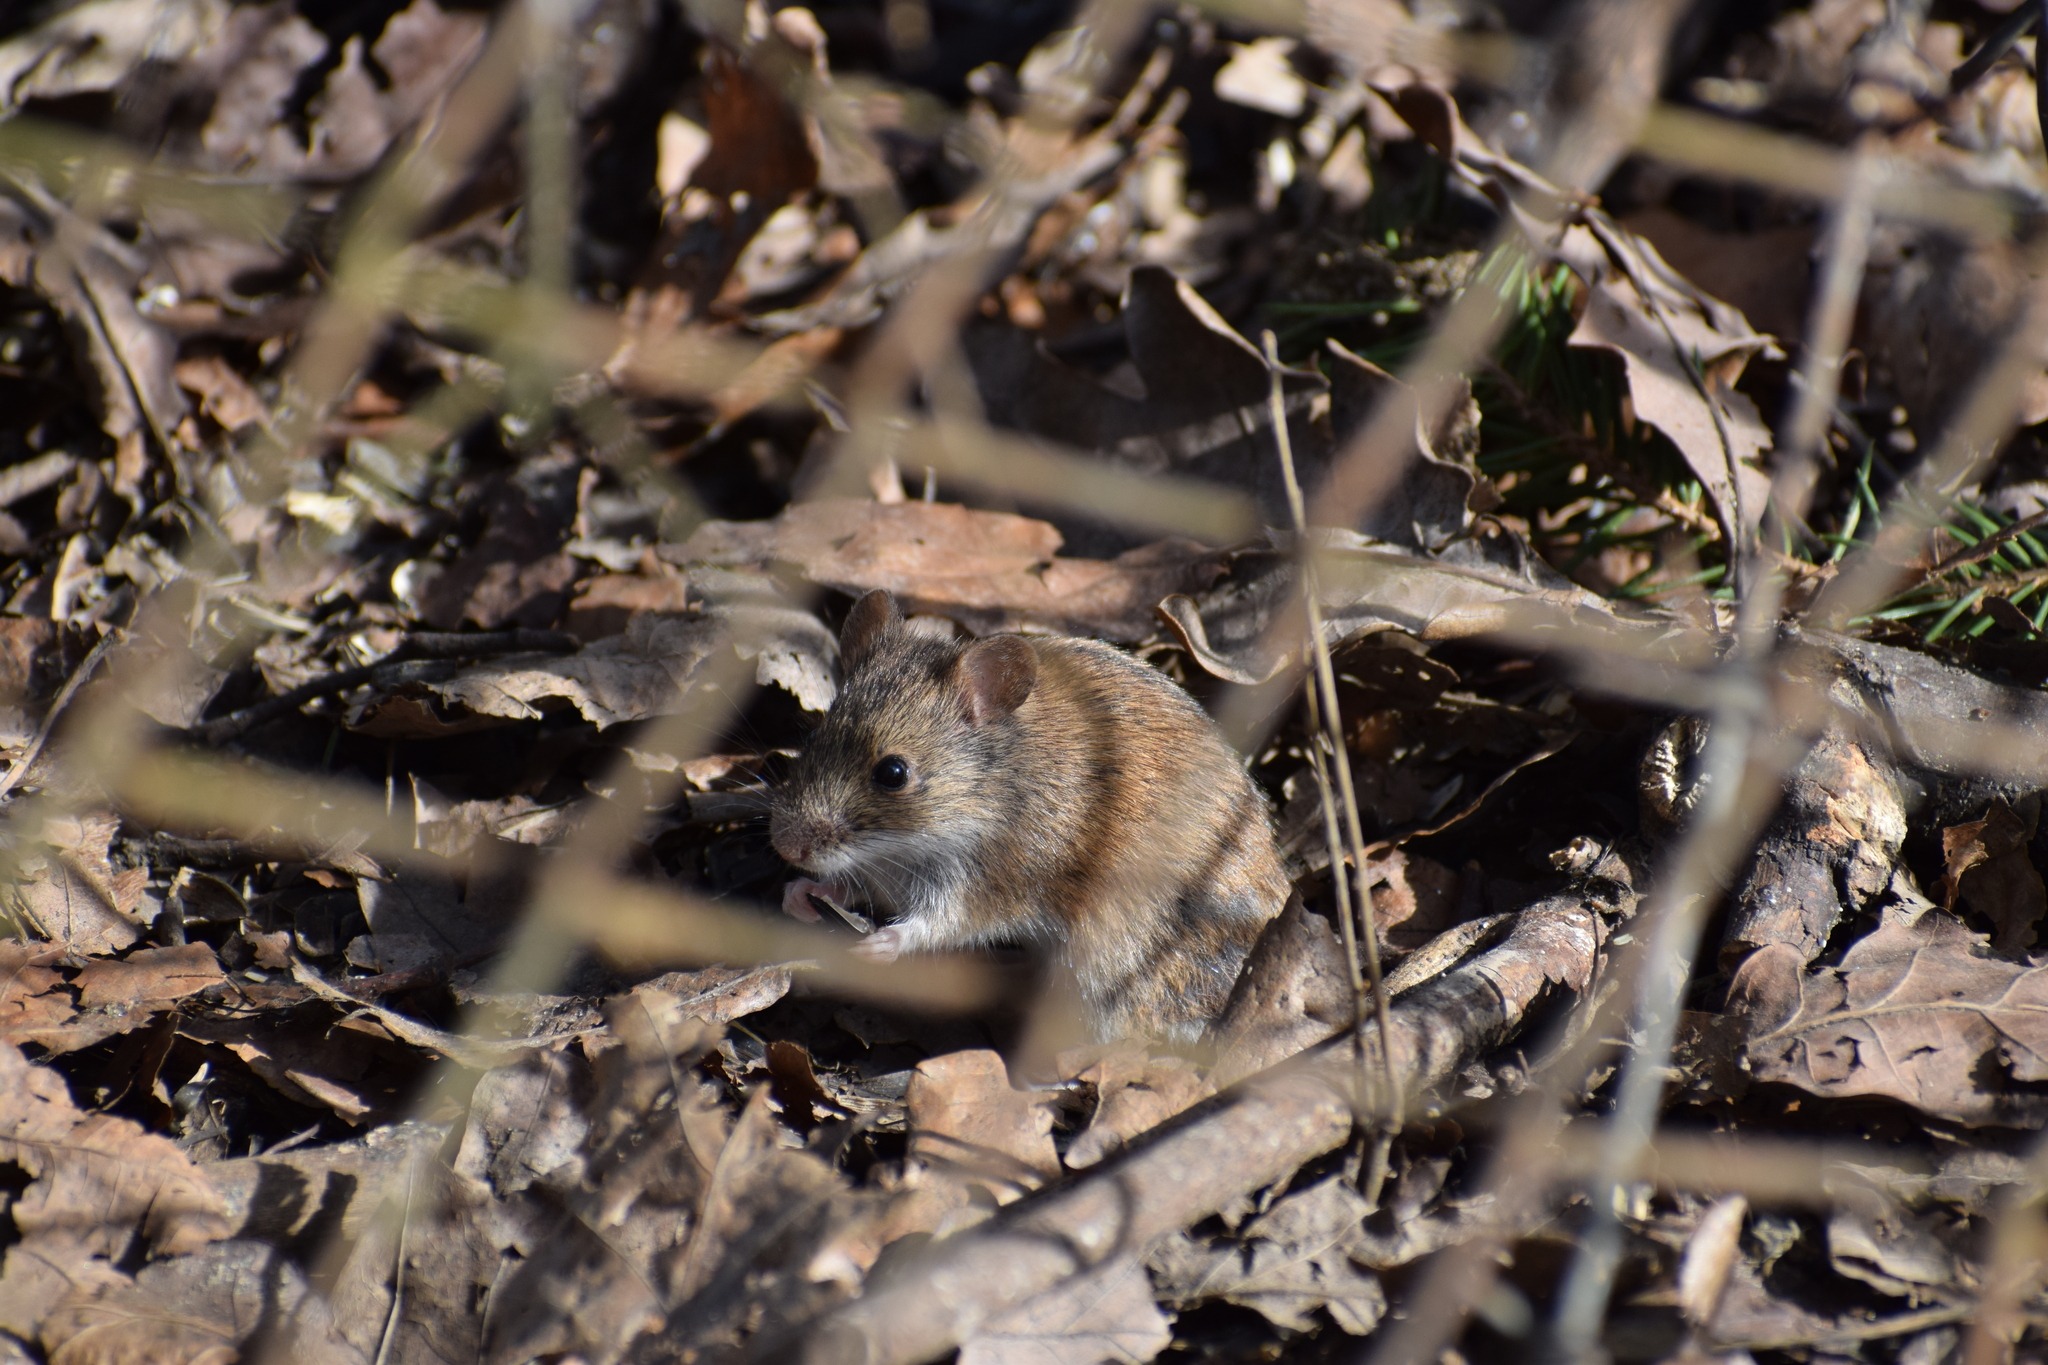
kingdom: Animalia
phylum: Chordata
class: Mammalia
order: Rodentia
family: Muridae
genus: Apodemus
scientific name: Apodemus agrarius
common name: Striped field mouse
